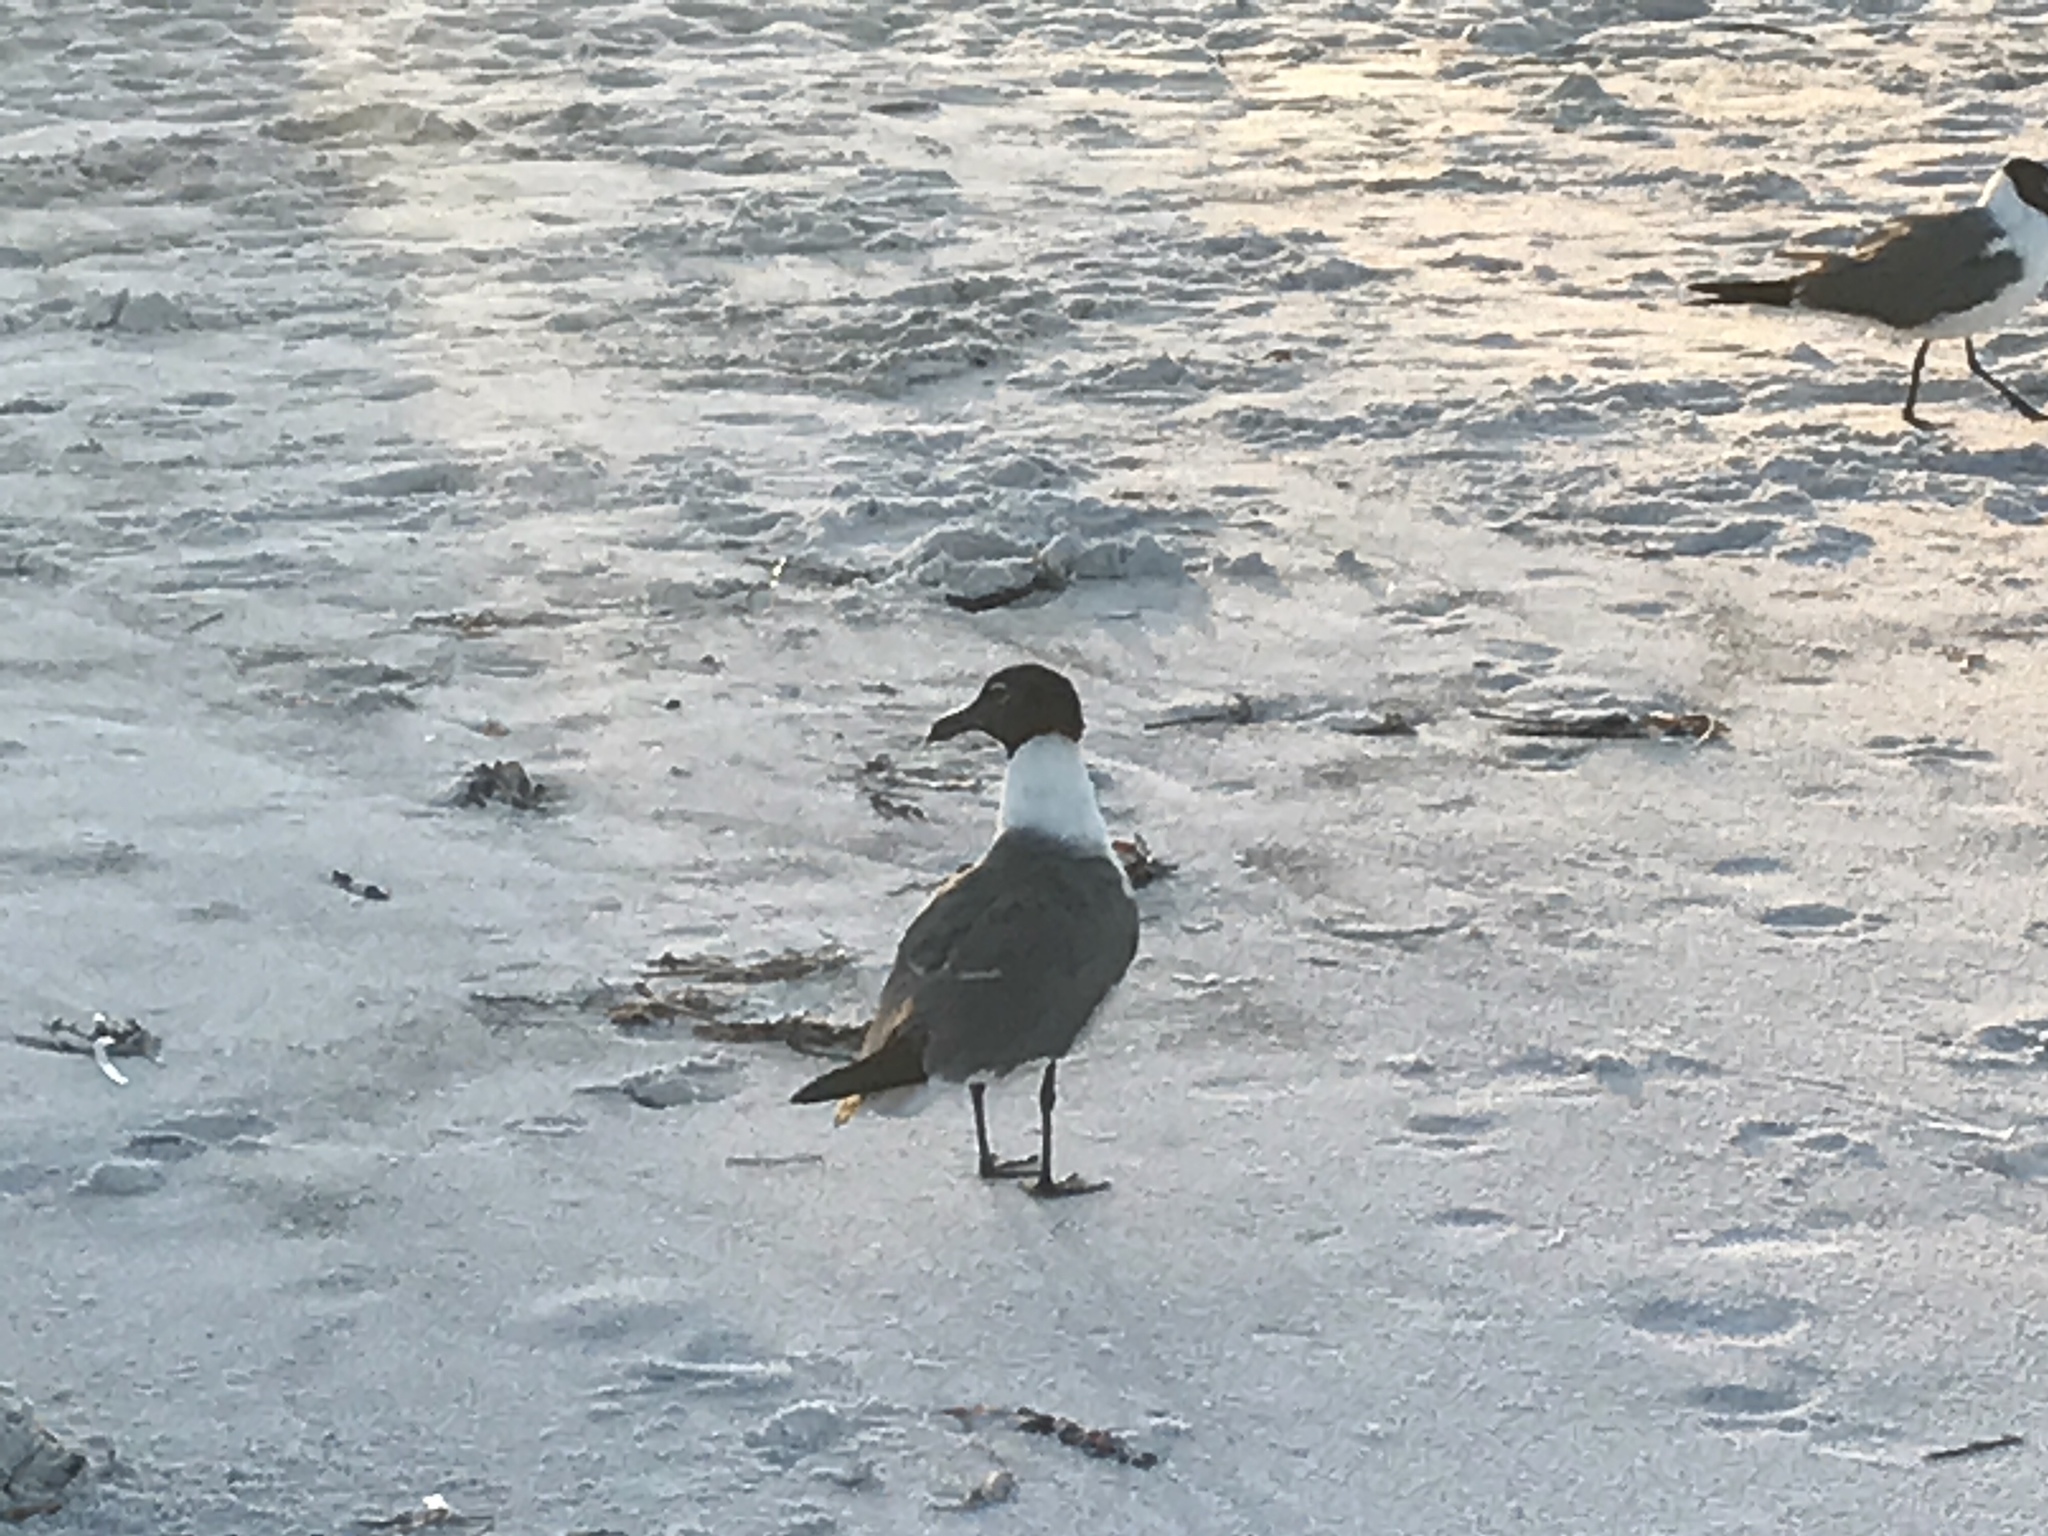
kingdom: Animalia
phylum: Chordata
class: Aves
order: Charadriiformes
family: Laridae
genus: Leucophaeus
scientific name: Leucophaeus atricilla
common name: Laughing gull
